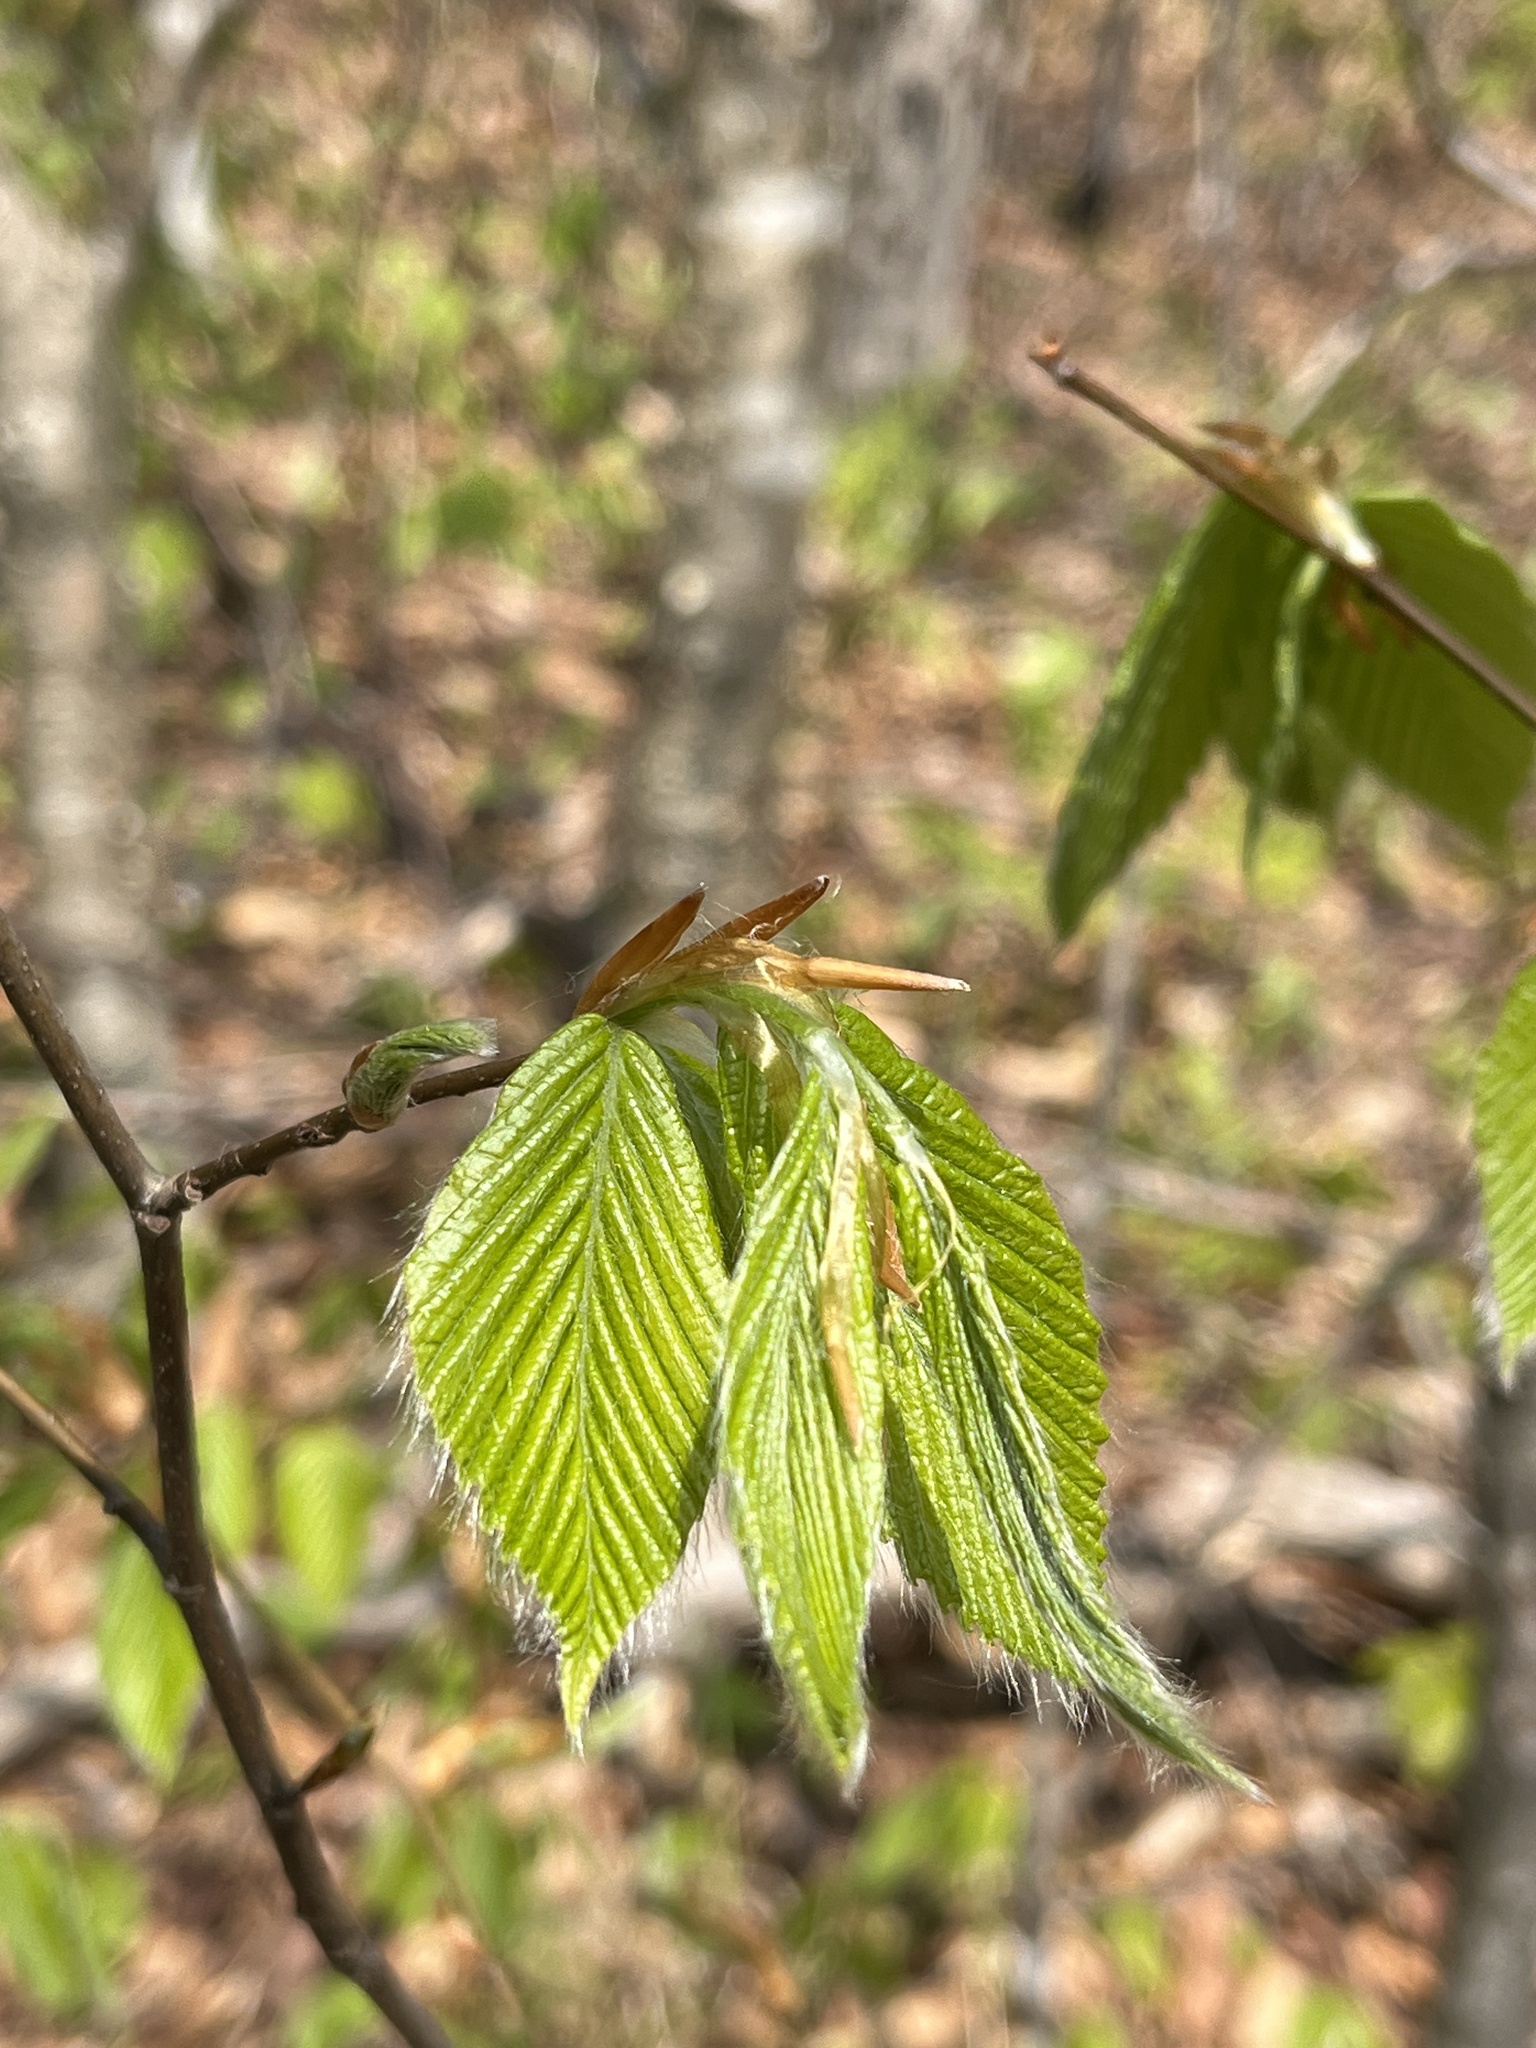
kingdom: Plantae
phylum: Tracheophyta
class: Magnoliopsida
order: Fagales
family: Fagaceae
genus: Fagus
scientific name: Fagus grandifolia
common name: American beech
